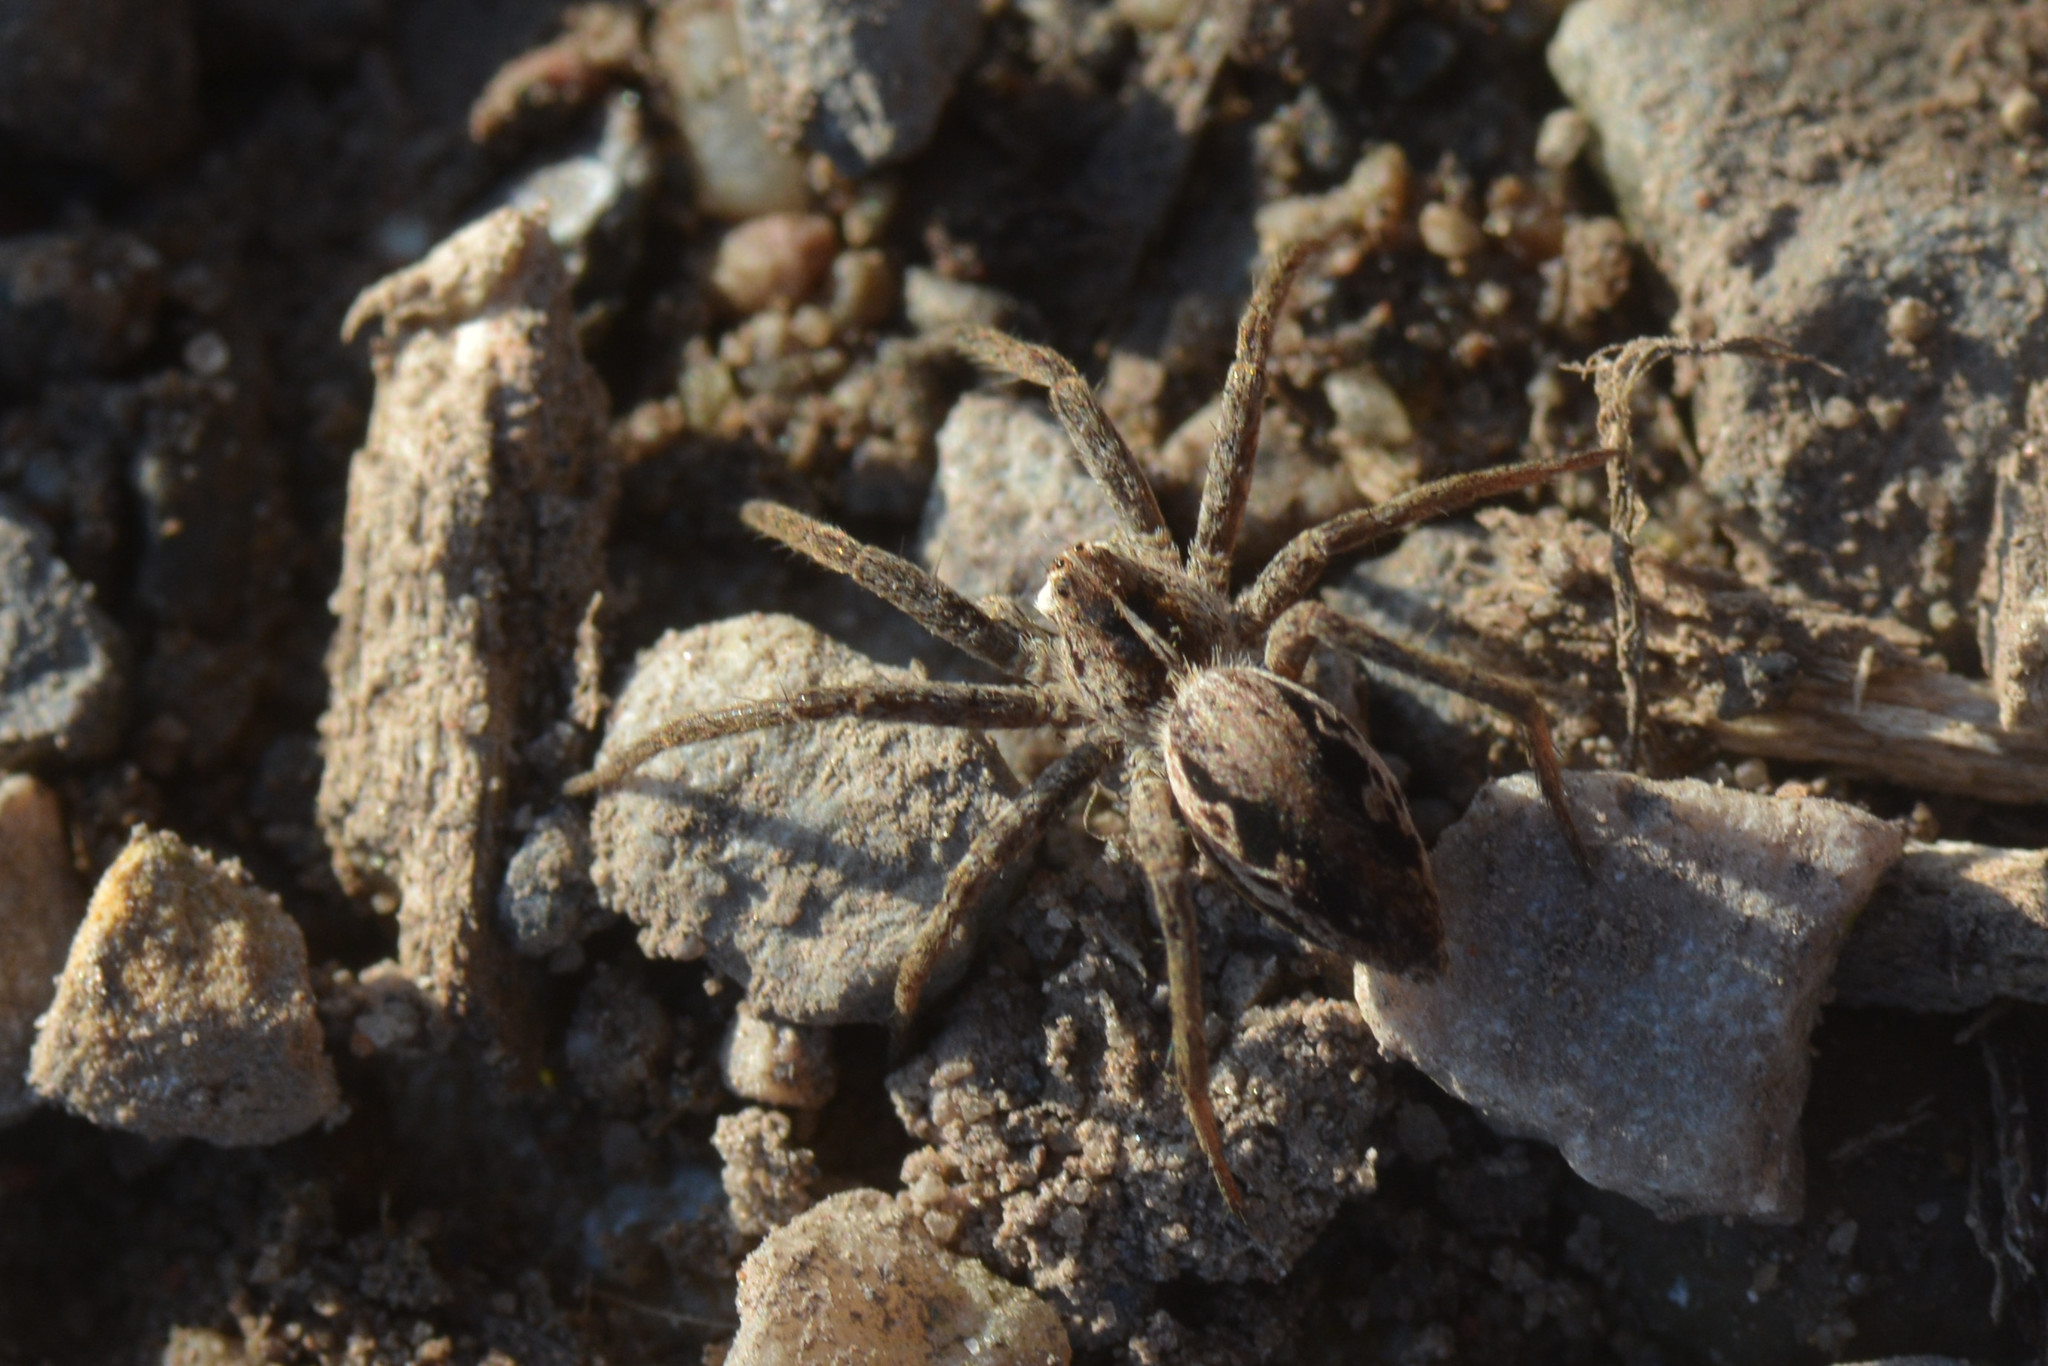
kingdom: Animalia
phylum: Arthropoda
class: Arachnida
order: Araneae
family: Pisauridae
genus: Pisaura
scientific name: Pisaura mirabilis
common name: Tent spider
